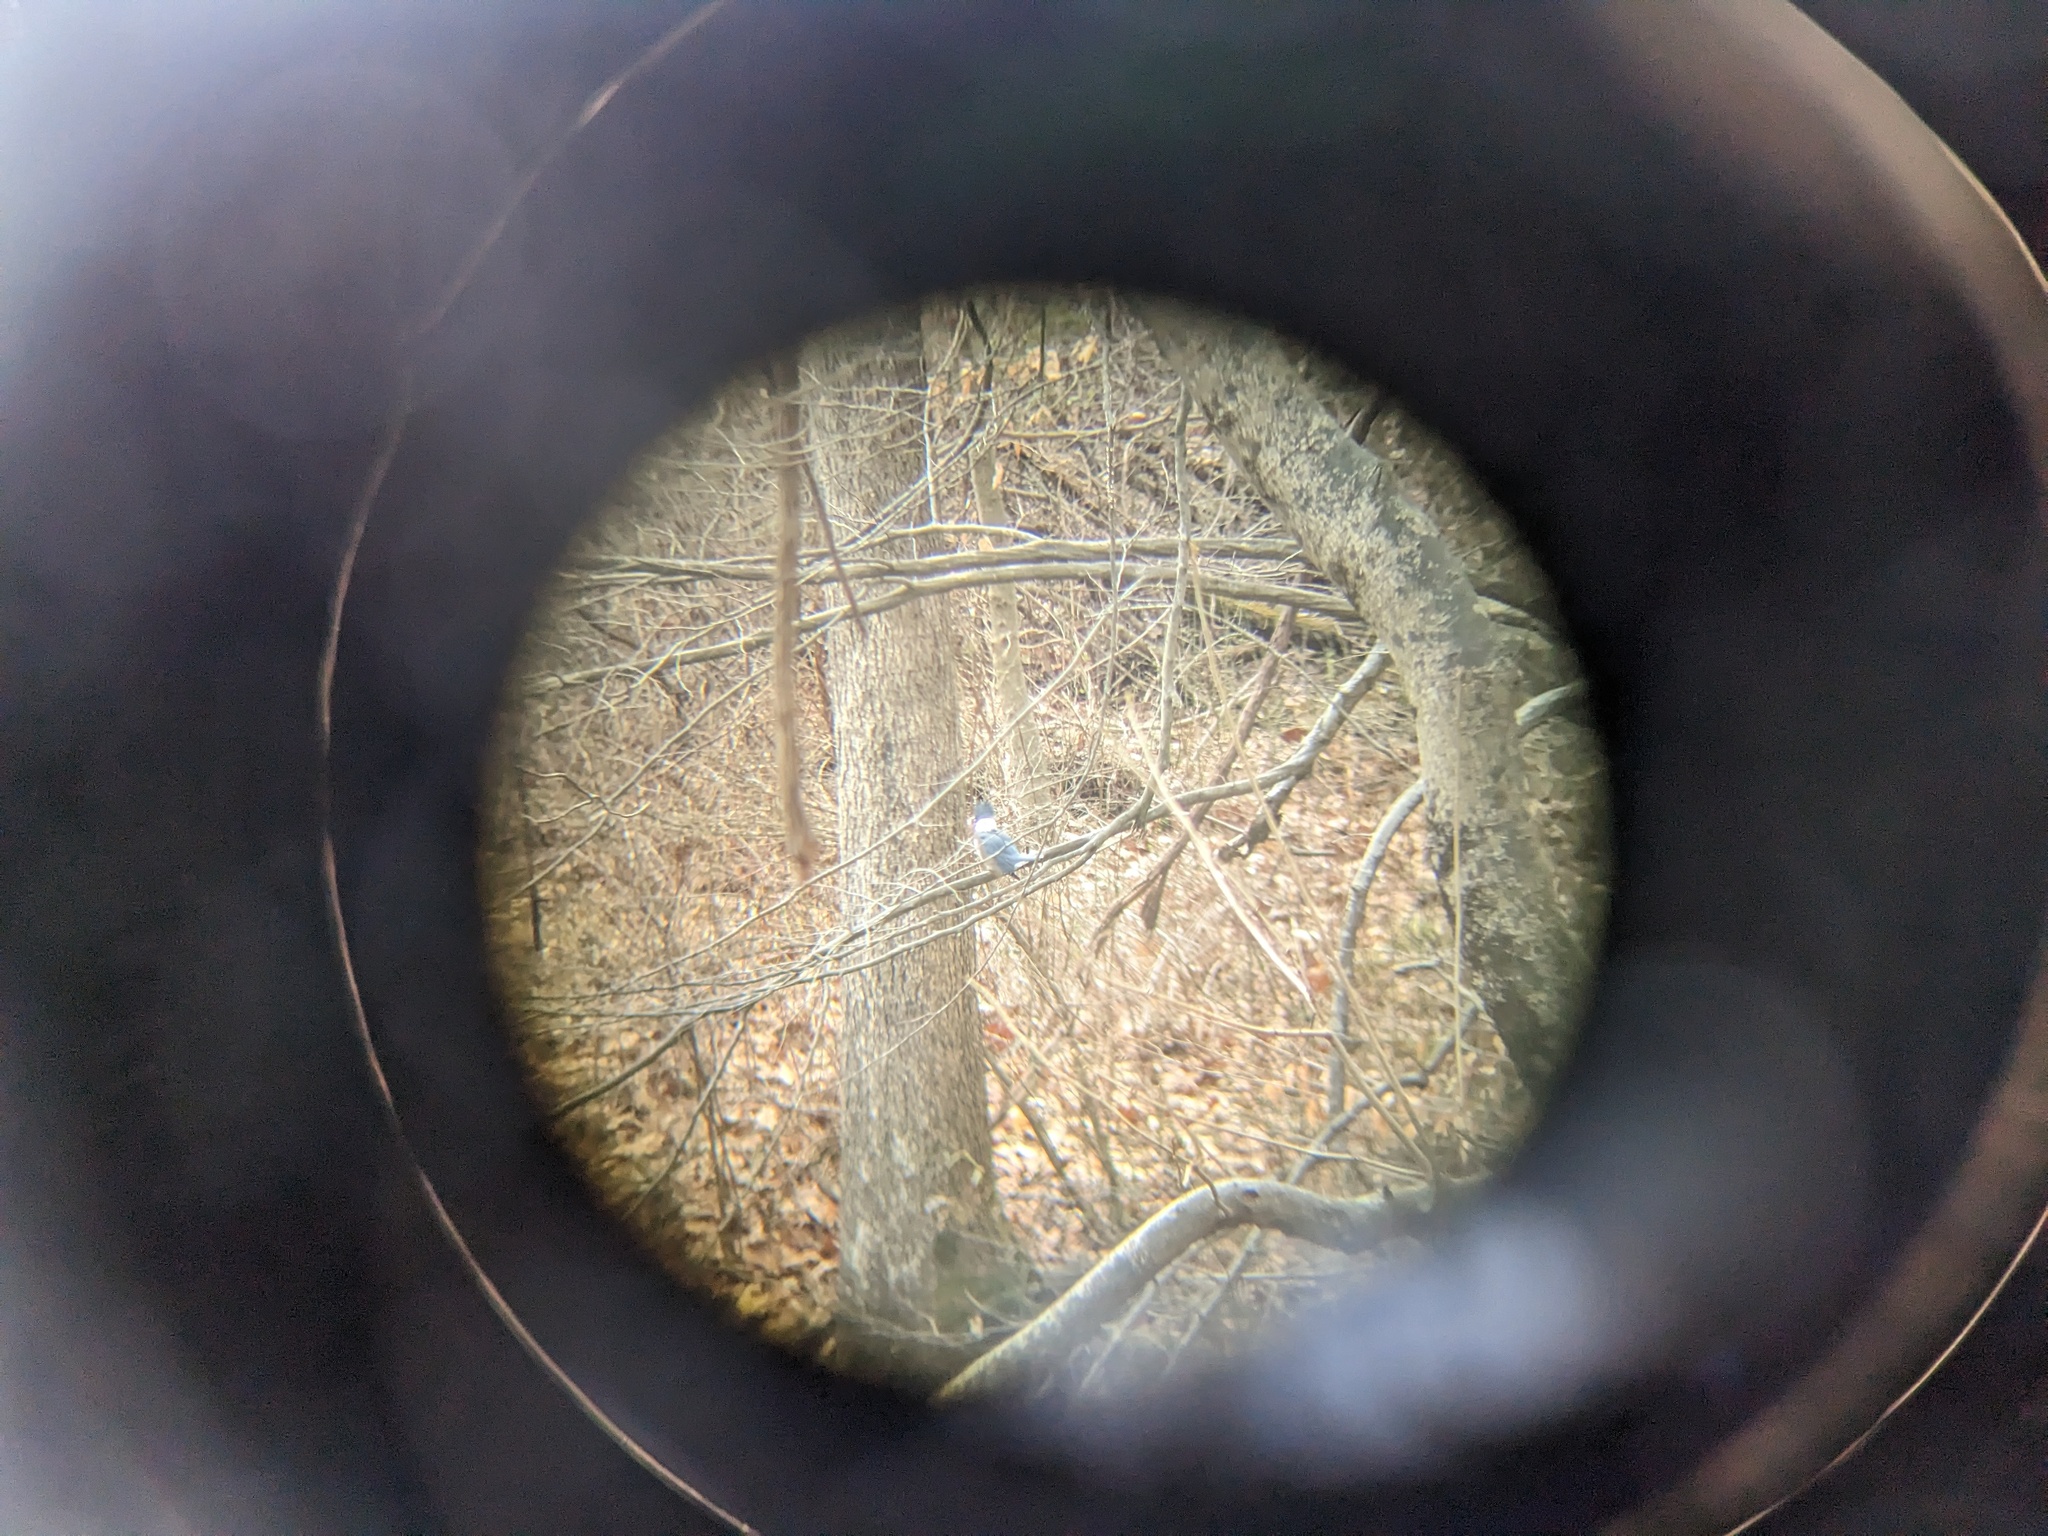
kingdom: Animalia
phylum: Chordata
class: Aves
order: Coraciiformes
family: Alcedinidae
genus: Megaceryle
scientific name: Megaceryle alcyon
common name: Belted kingfisher
